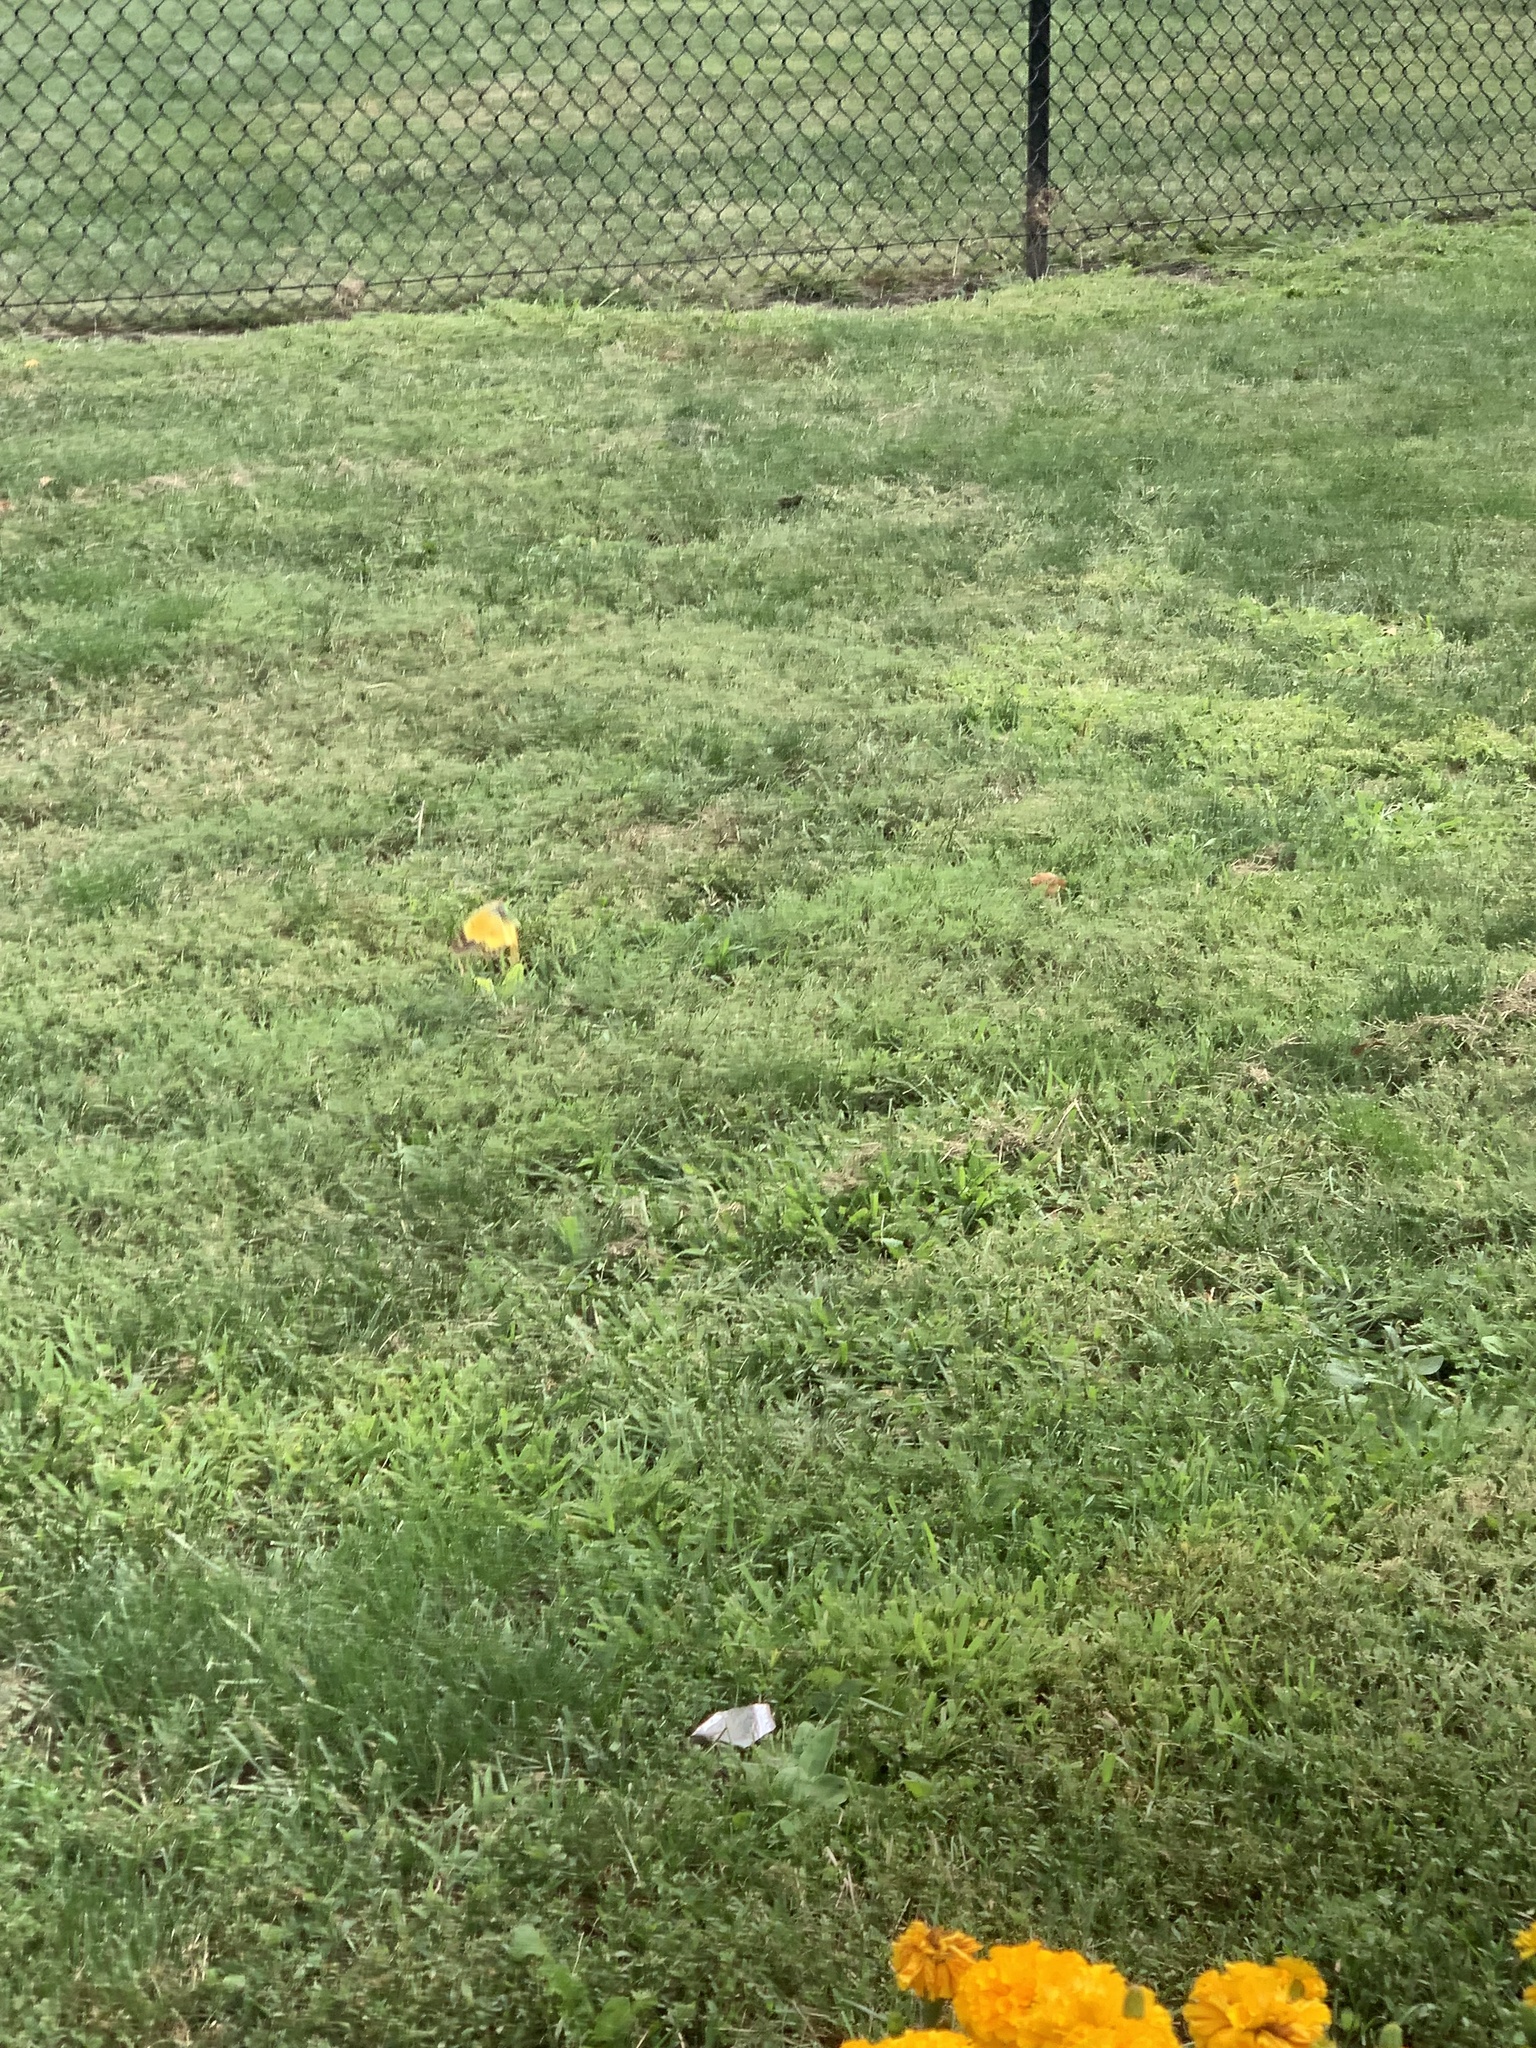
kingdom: Animalia
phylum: Arthropoda
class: Insecta
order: Lepidoptera
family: Pieridae
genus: Colias
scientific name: Colias eurytheme
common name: Alfalfa butterfly
